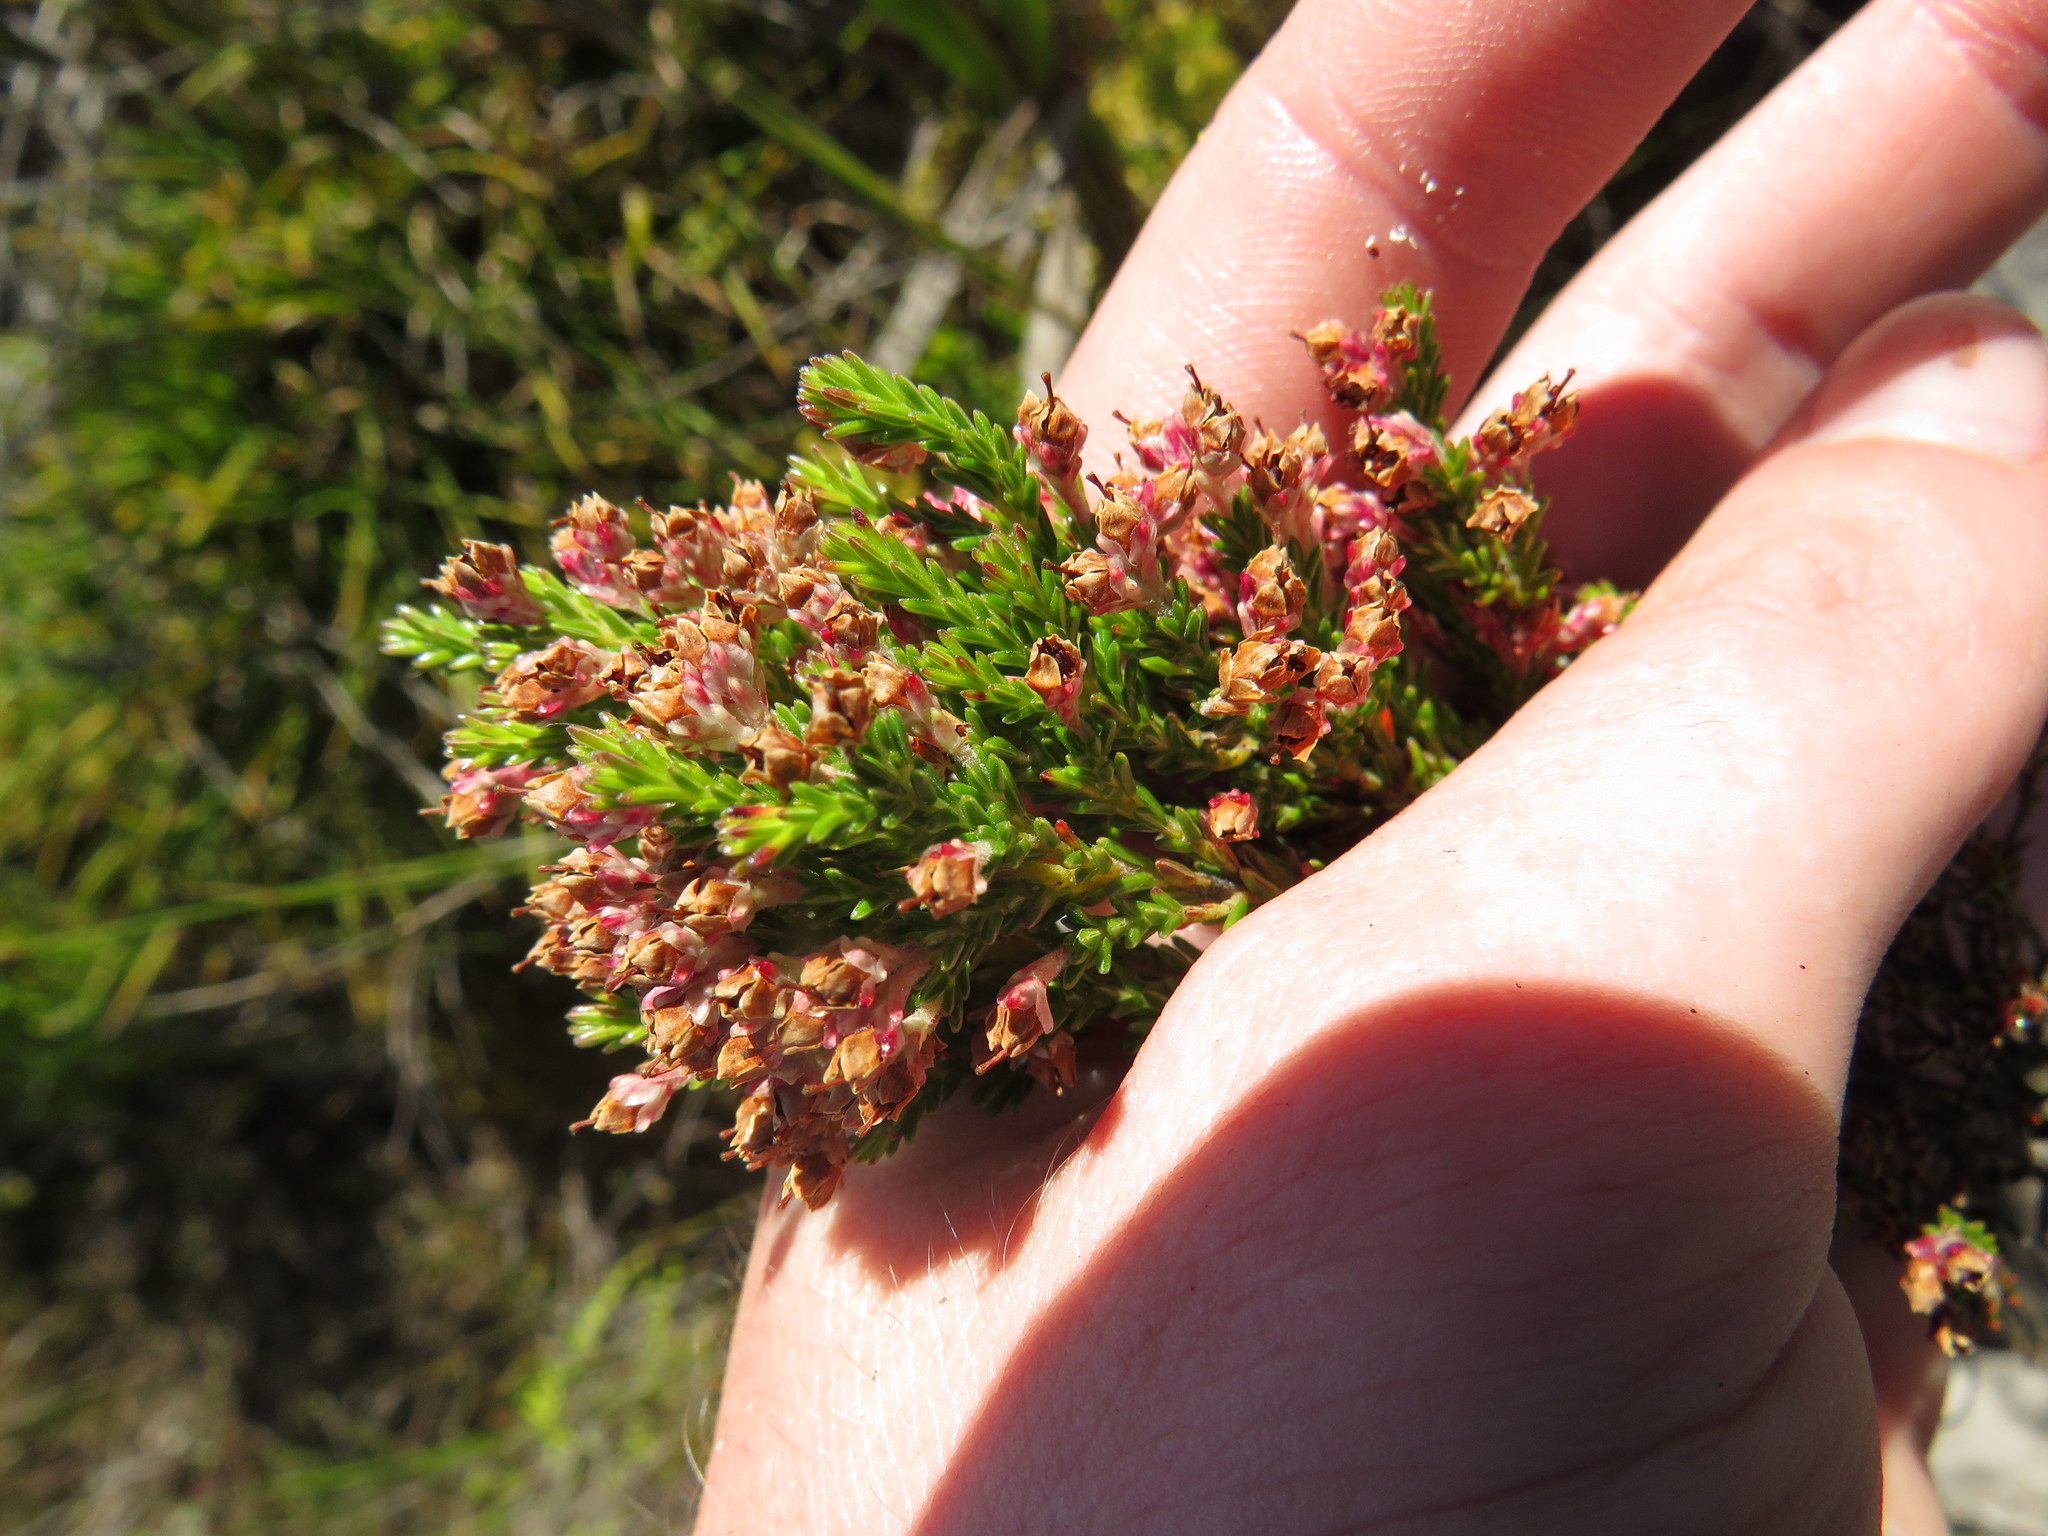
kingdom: Plantae
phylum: Tracheophyta
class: Magnoliopsida
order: Ericales
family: Ericaceae
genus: Erica
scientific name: Erica diosmifolia
